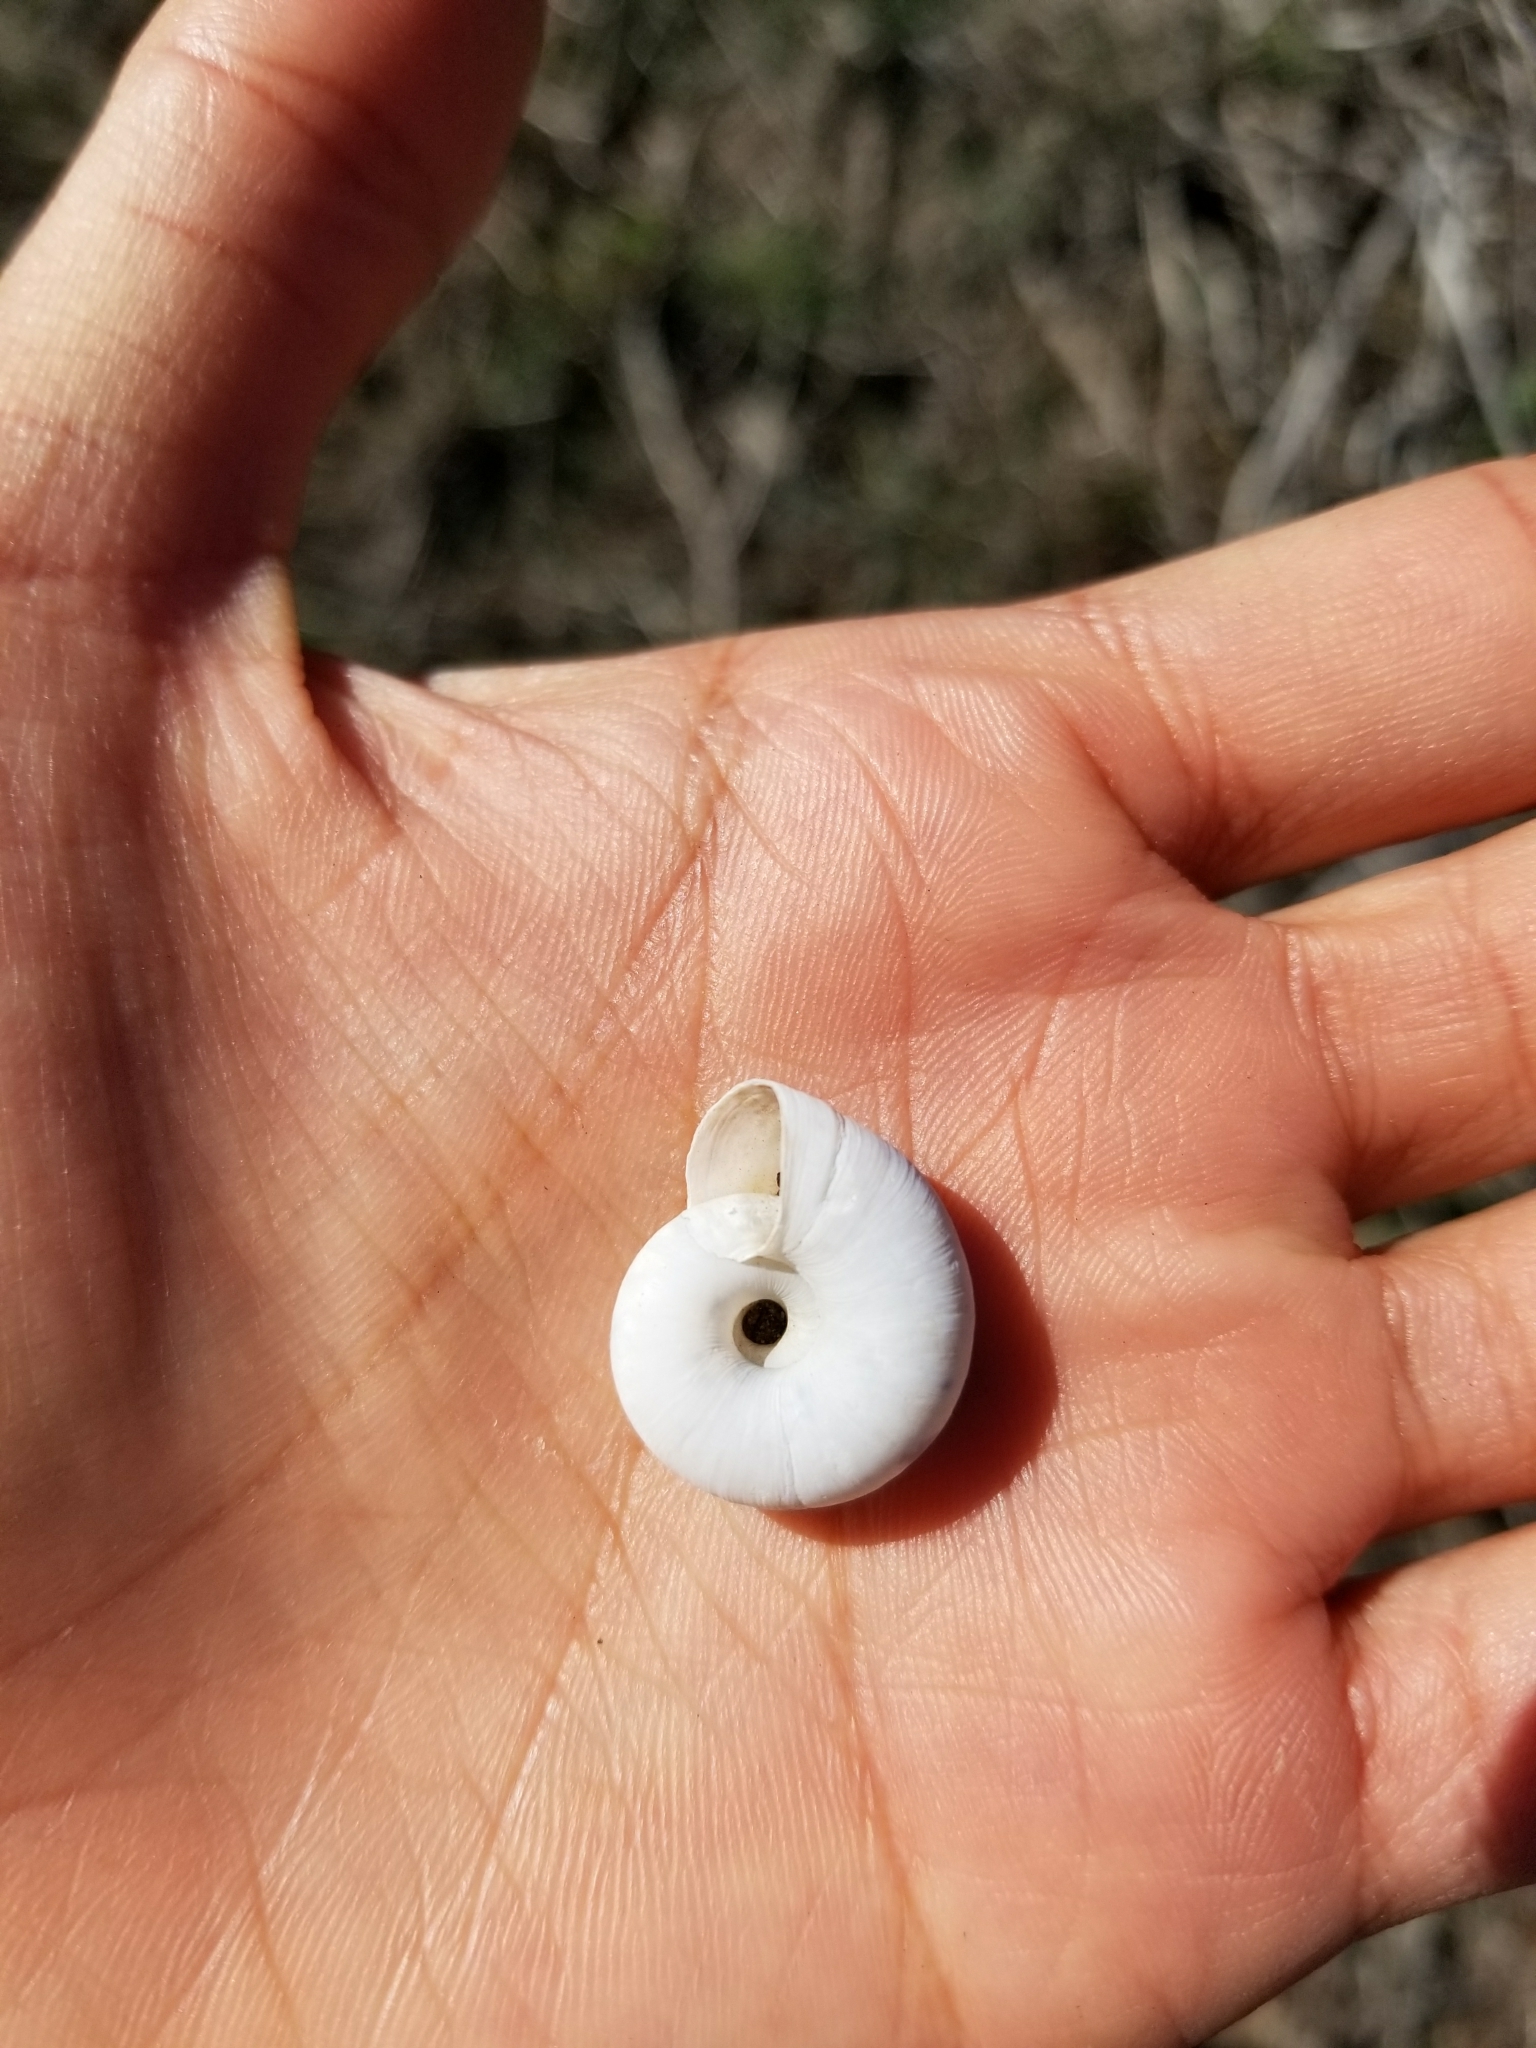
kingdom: Animalia
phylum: Mollusca
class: Gastropoda
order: Stylommatophora
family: Haplotrematidae
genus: Haplotrema
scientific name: Haplotrema minimum
